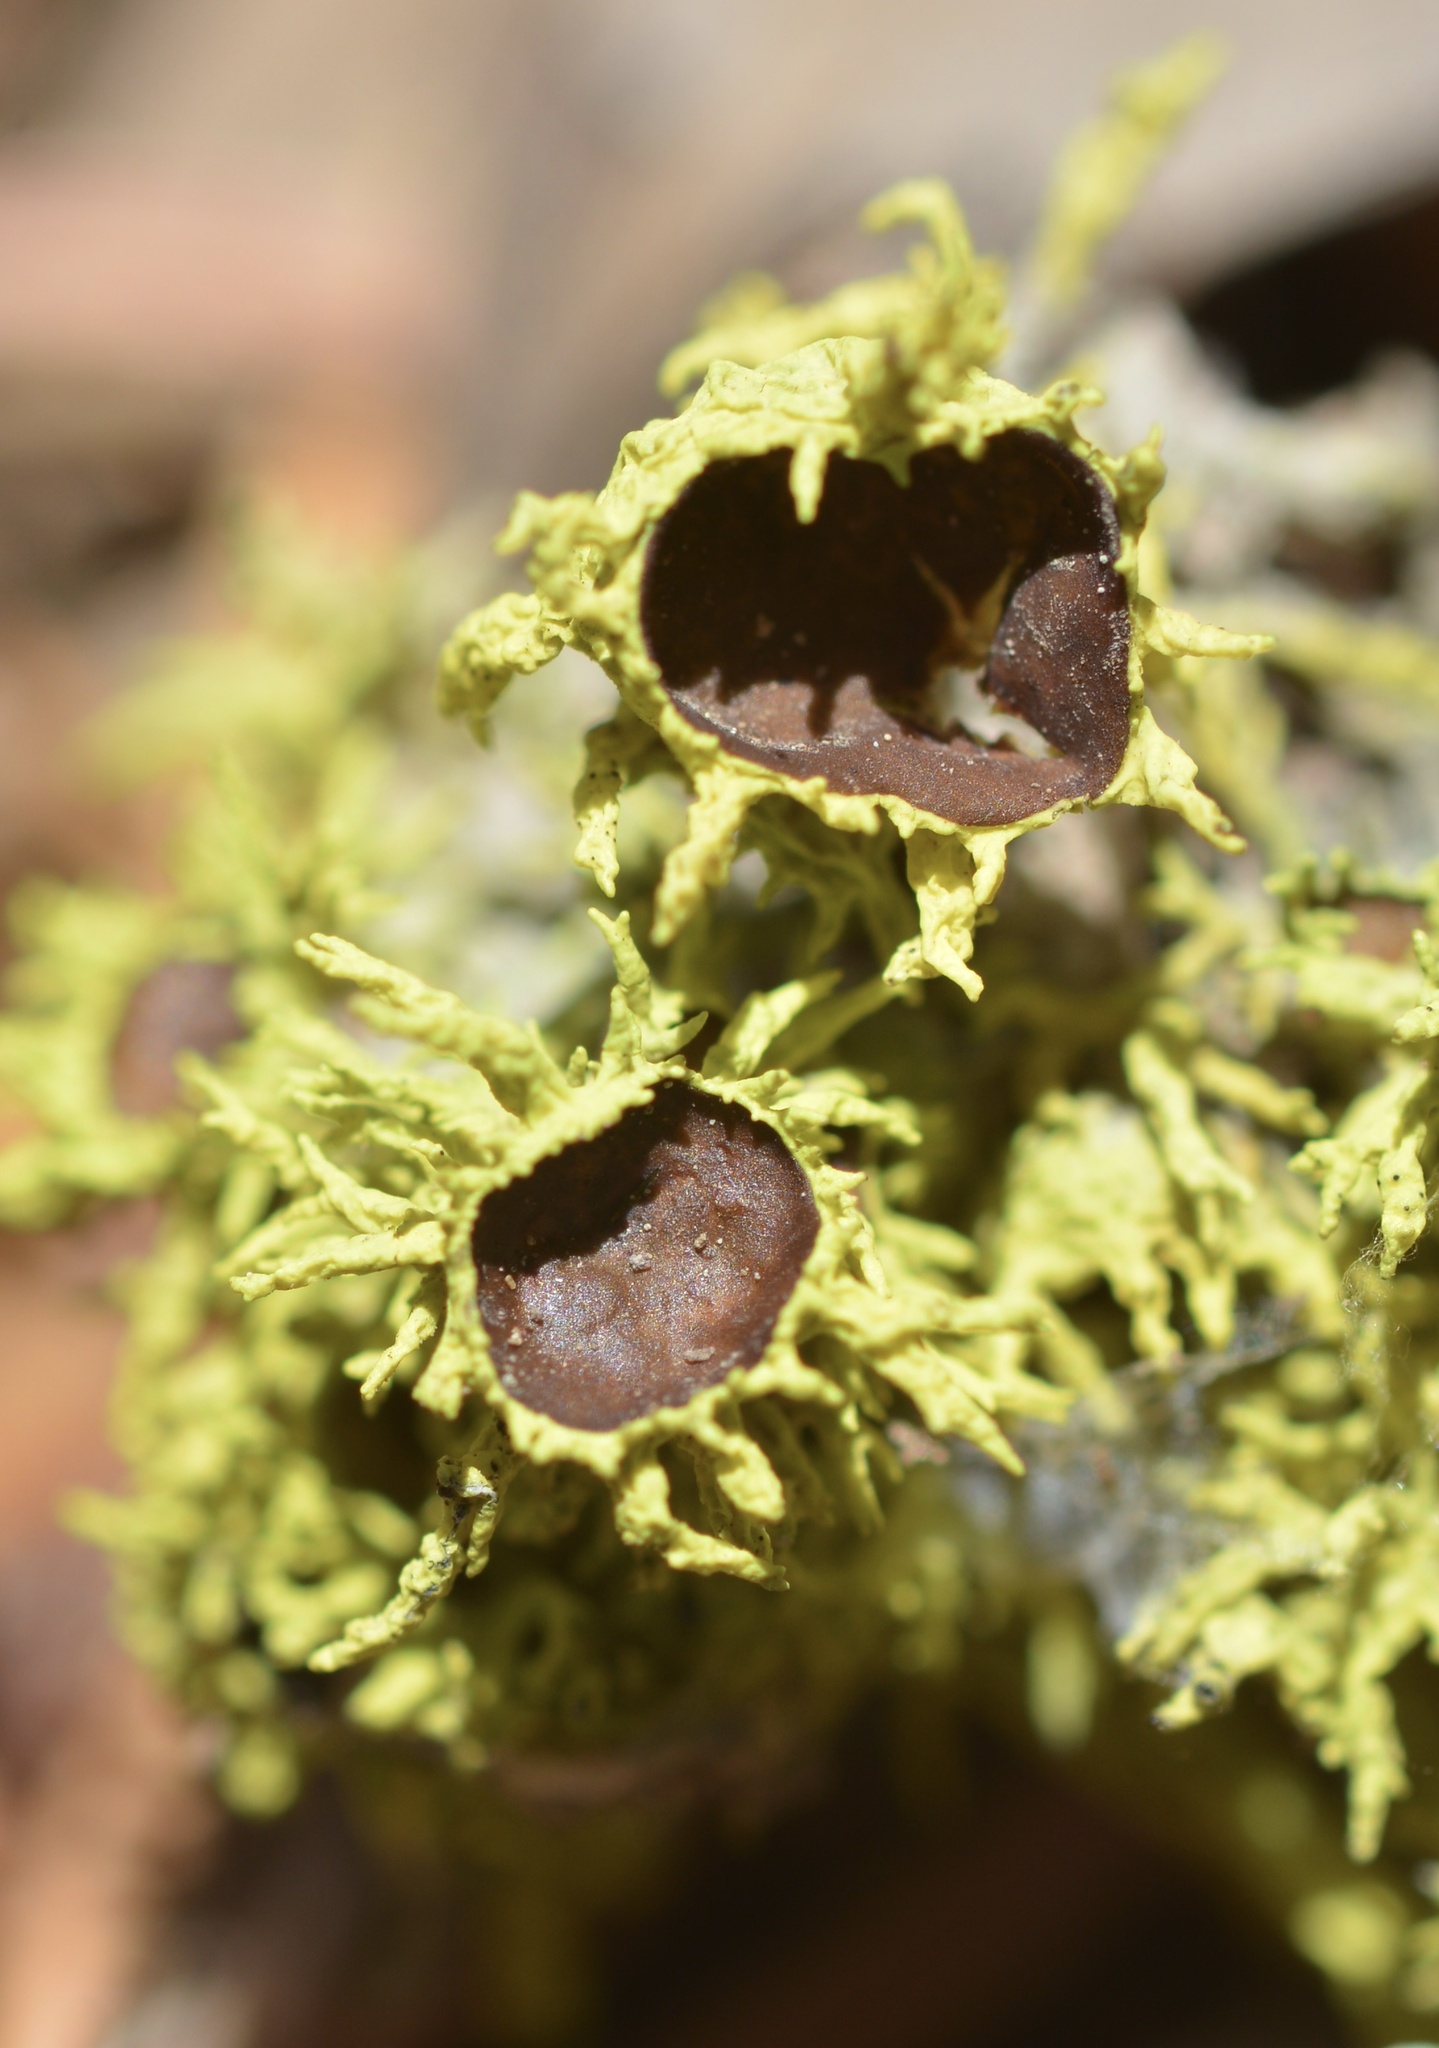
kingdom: Fungi
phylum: Ascomycota
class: Lecanoromycetes
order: Lecanorales
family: Parmeliaceae
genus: Letharia
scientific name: Letharia columbiana
